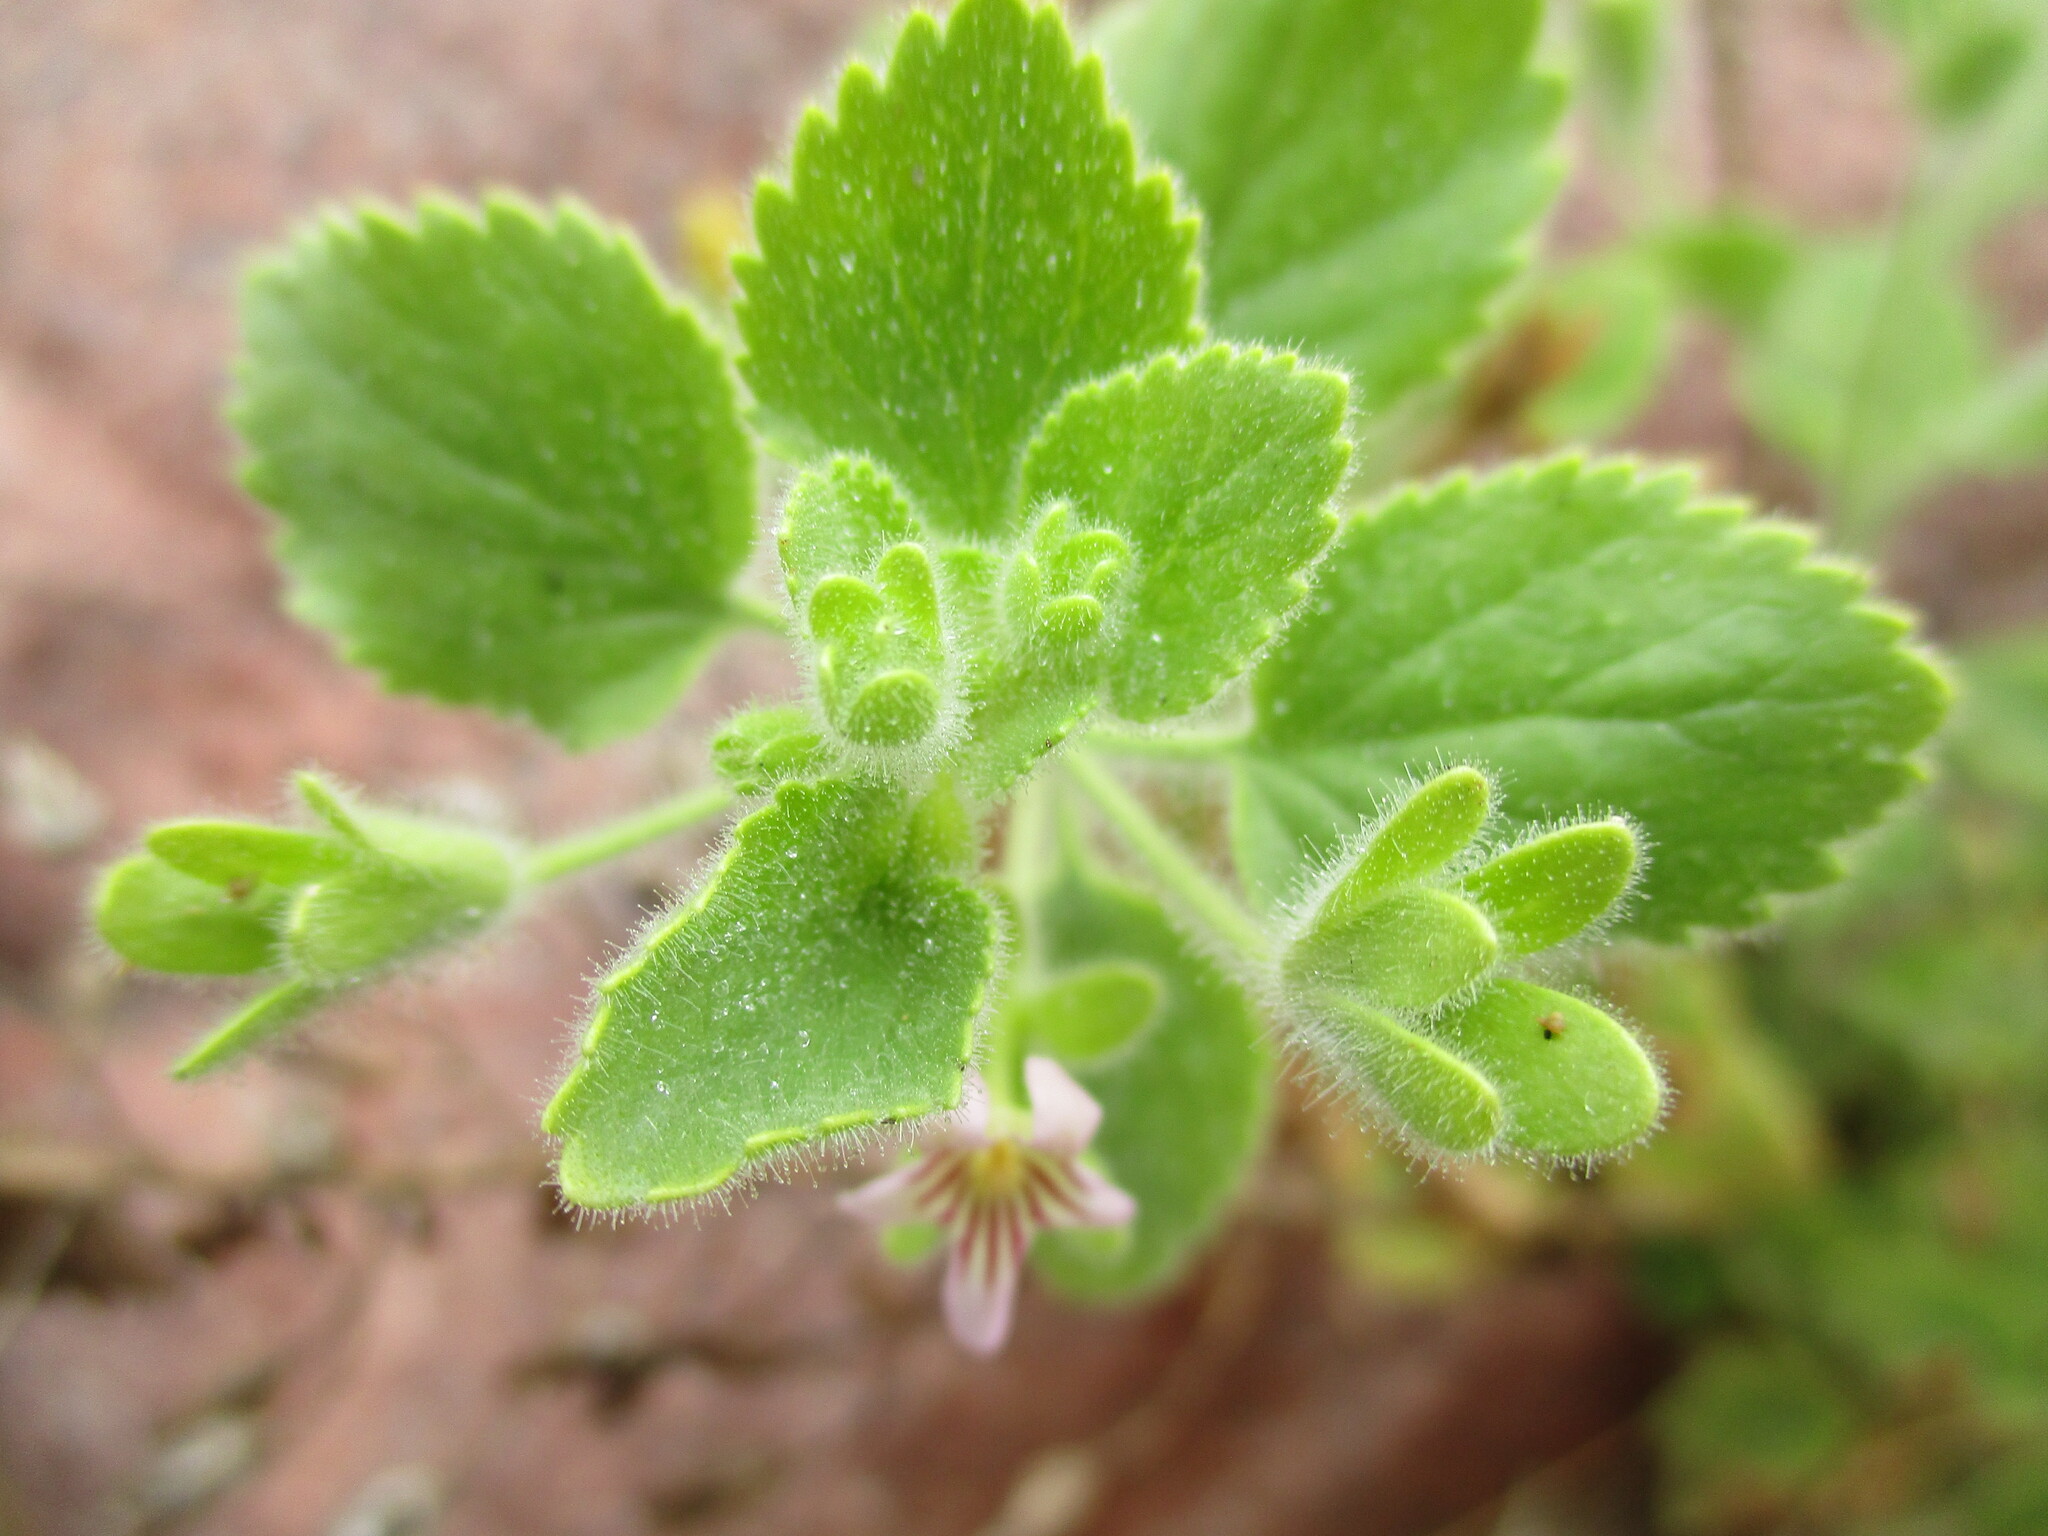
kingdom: Plantae
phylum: Tracheophyta
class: Magnoliopsida
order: Lamiales
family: Scrophulariaceae
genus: Camptoloma
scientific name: Camptoloma rotundifolium
